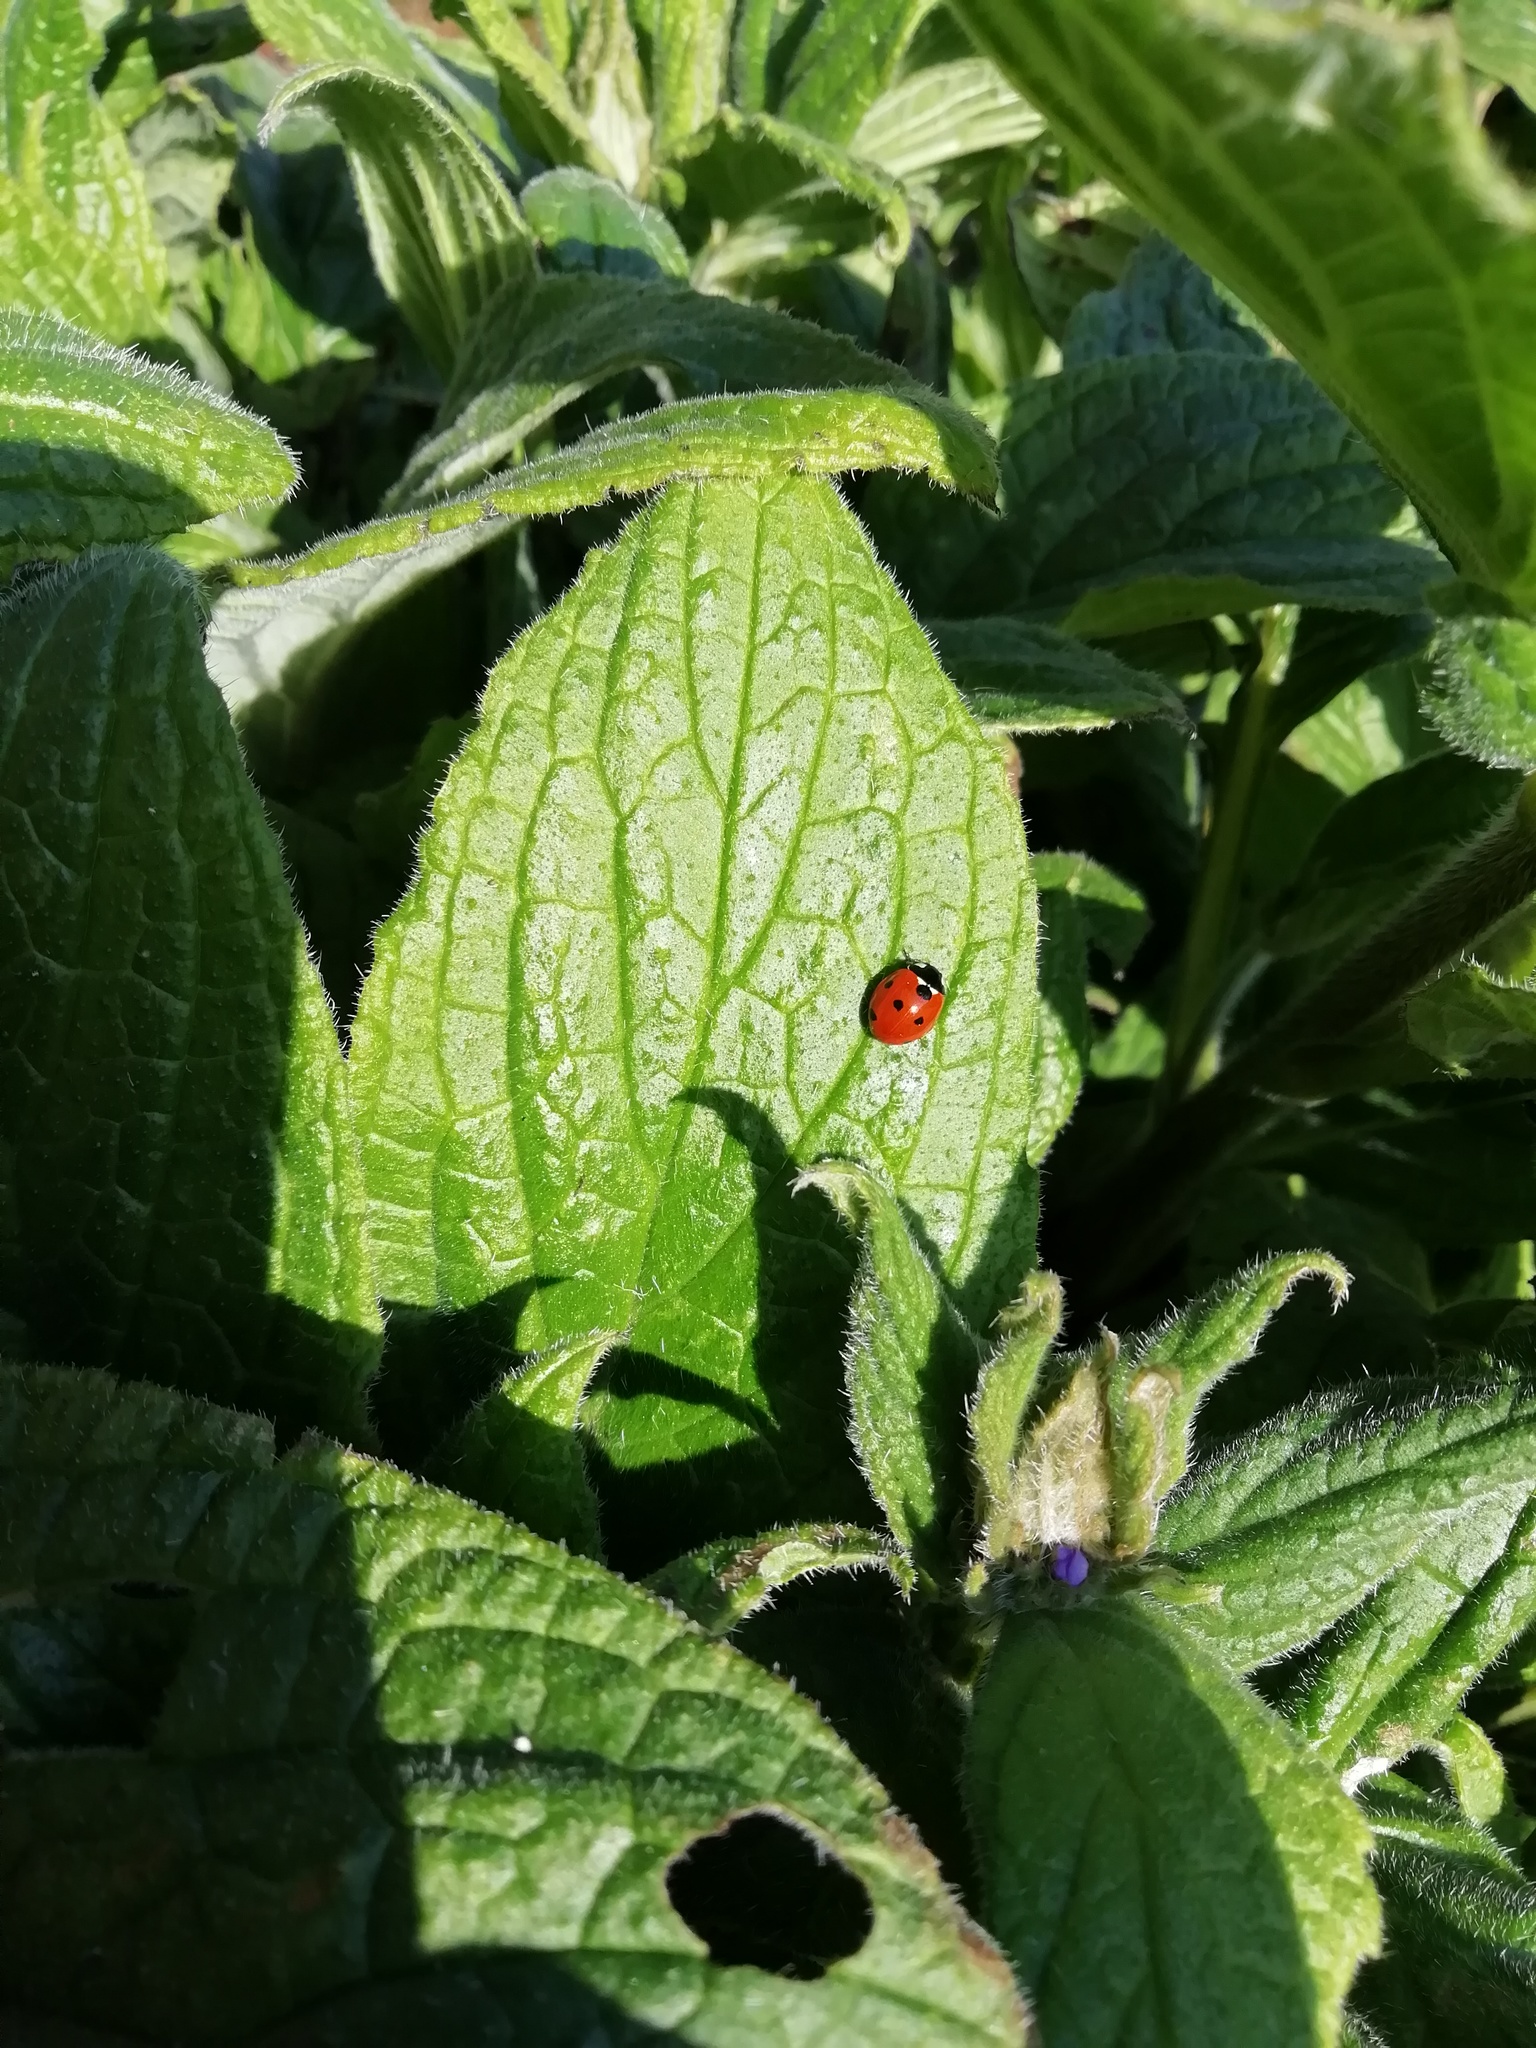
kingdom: Animalia
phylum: Arthropoda
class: Insecta
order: Coleoptera
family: Coccinellidae
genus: Coccinella
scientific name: Coccinella septempunctata
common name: Sevenspotted lady beetle
